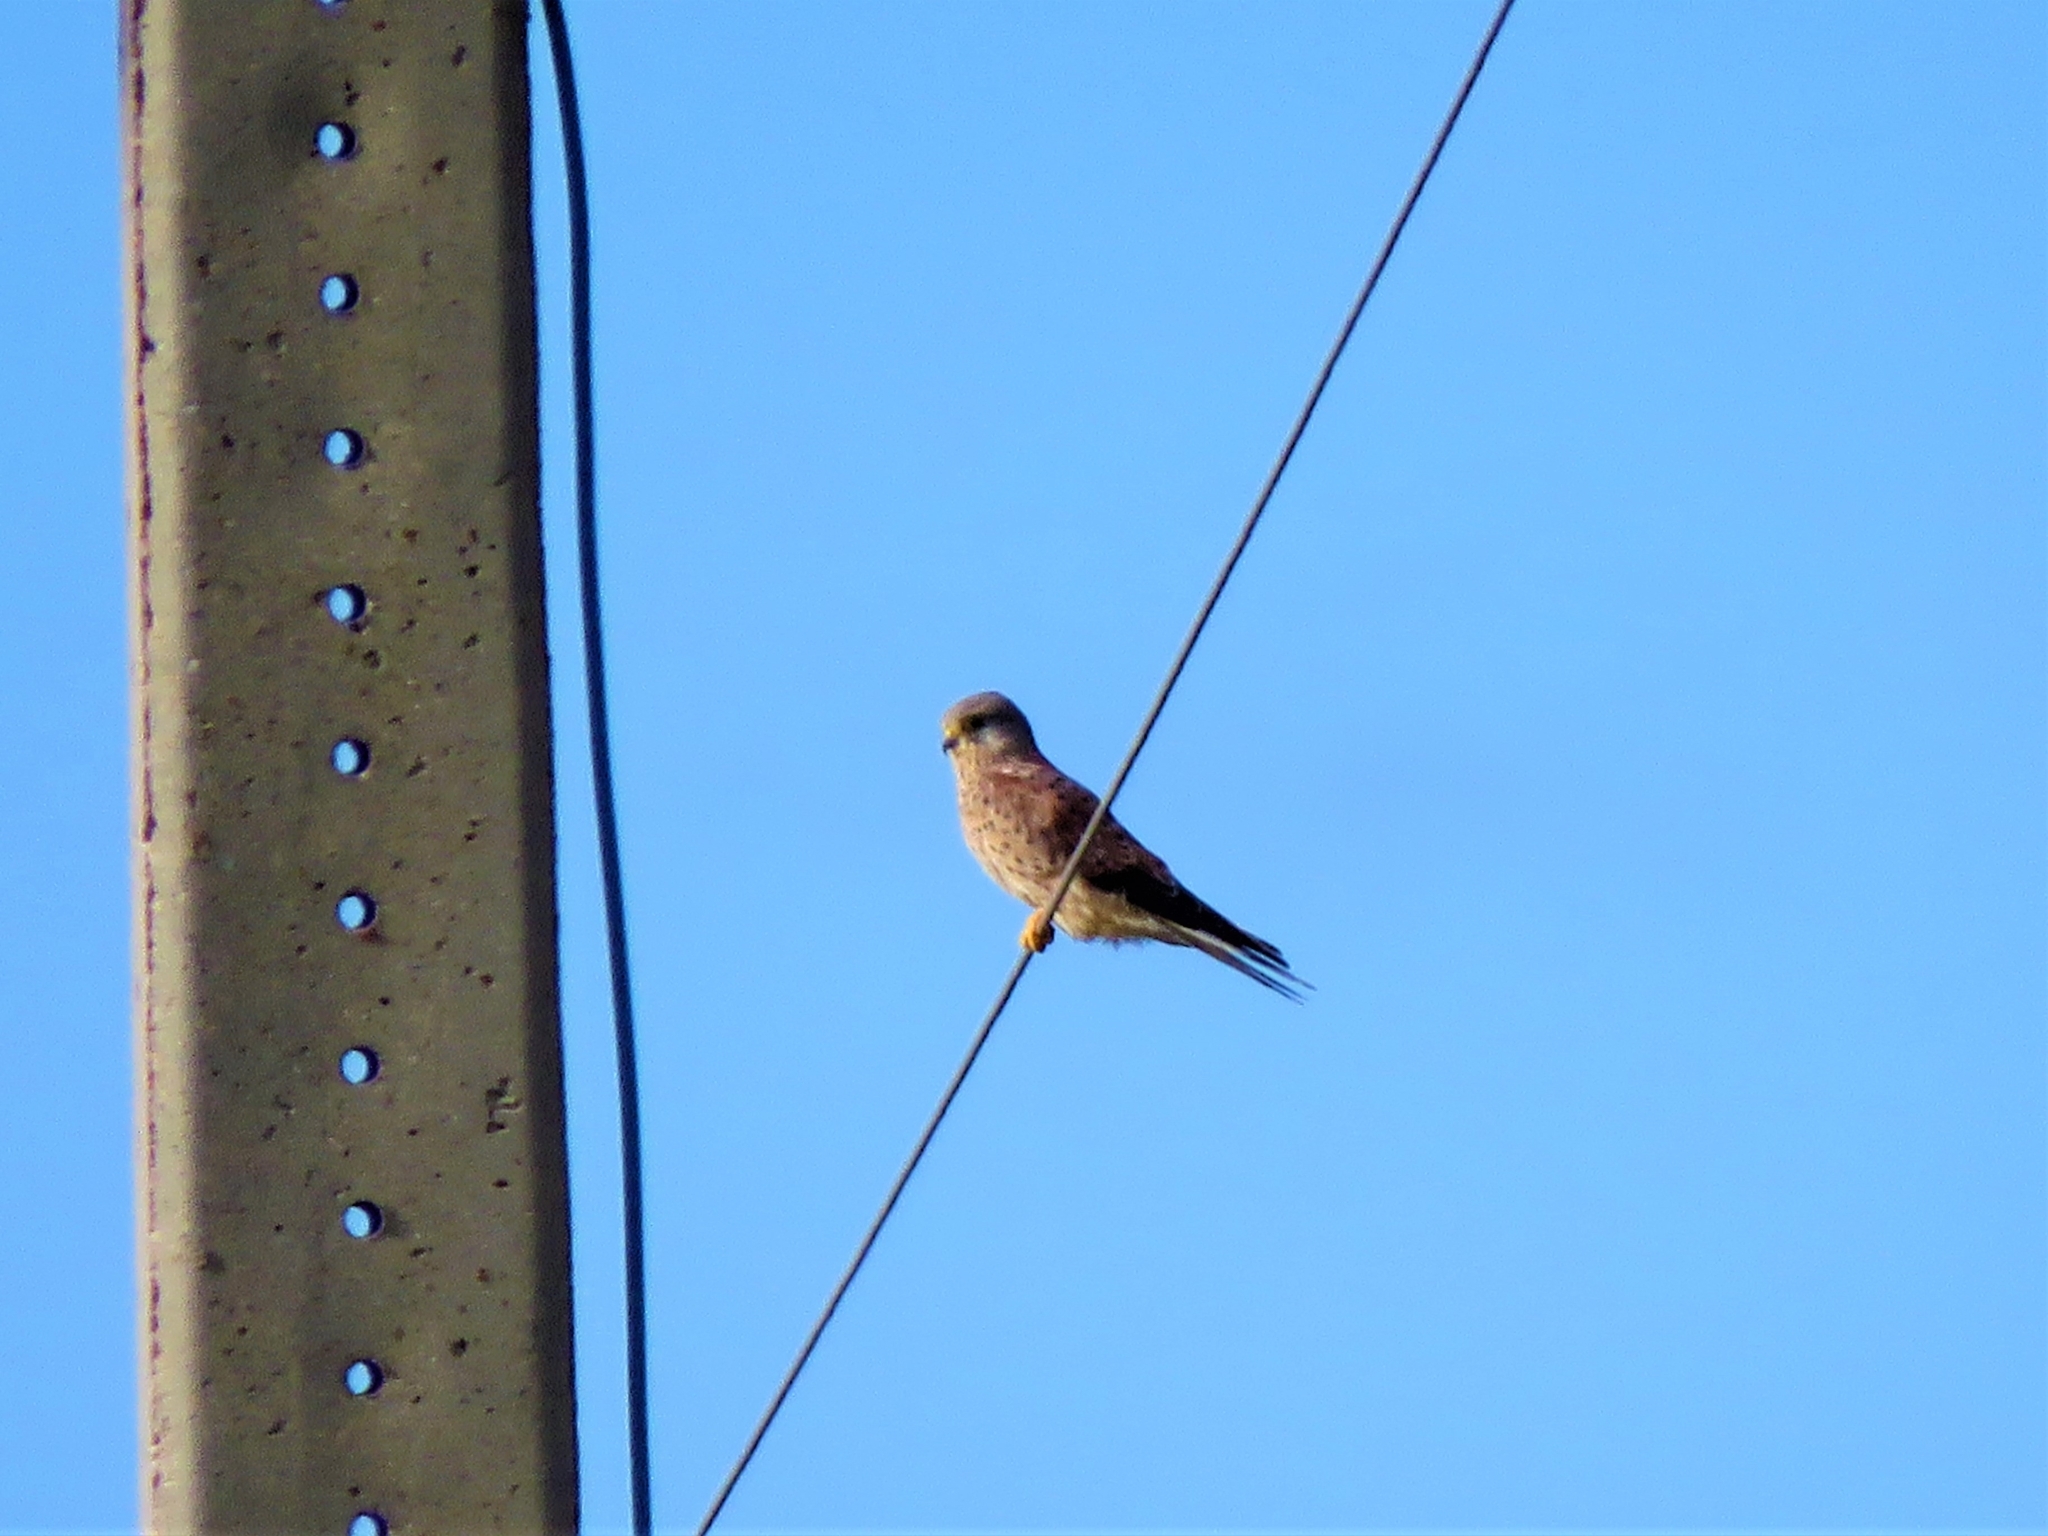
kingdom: Animalia
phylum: Chordata
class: Aves
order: Falconiformes
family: Falconidae
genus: Falco
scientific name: Falco tinnunculus
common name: Common kestrel
